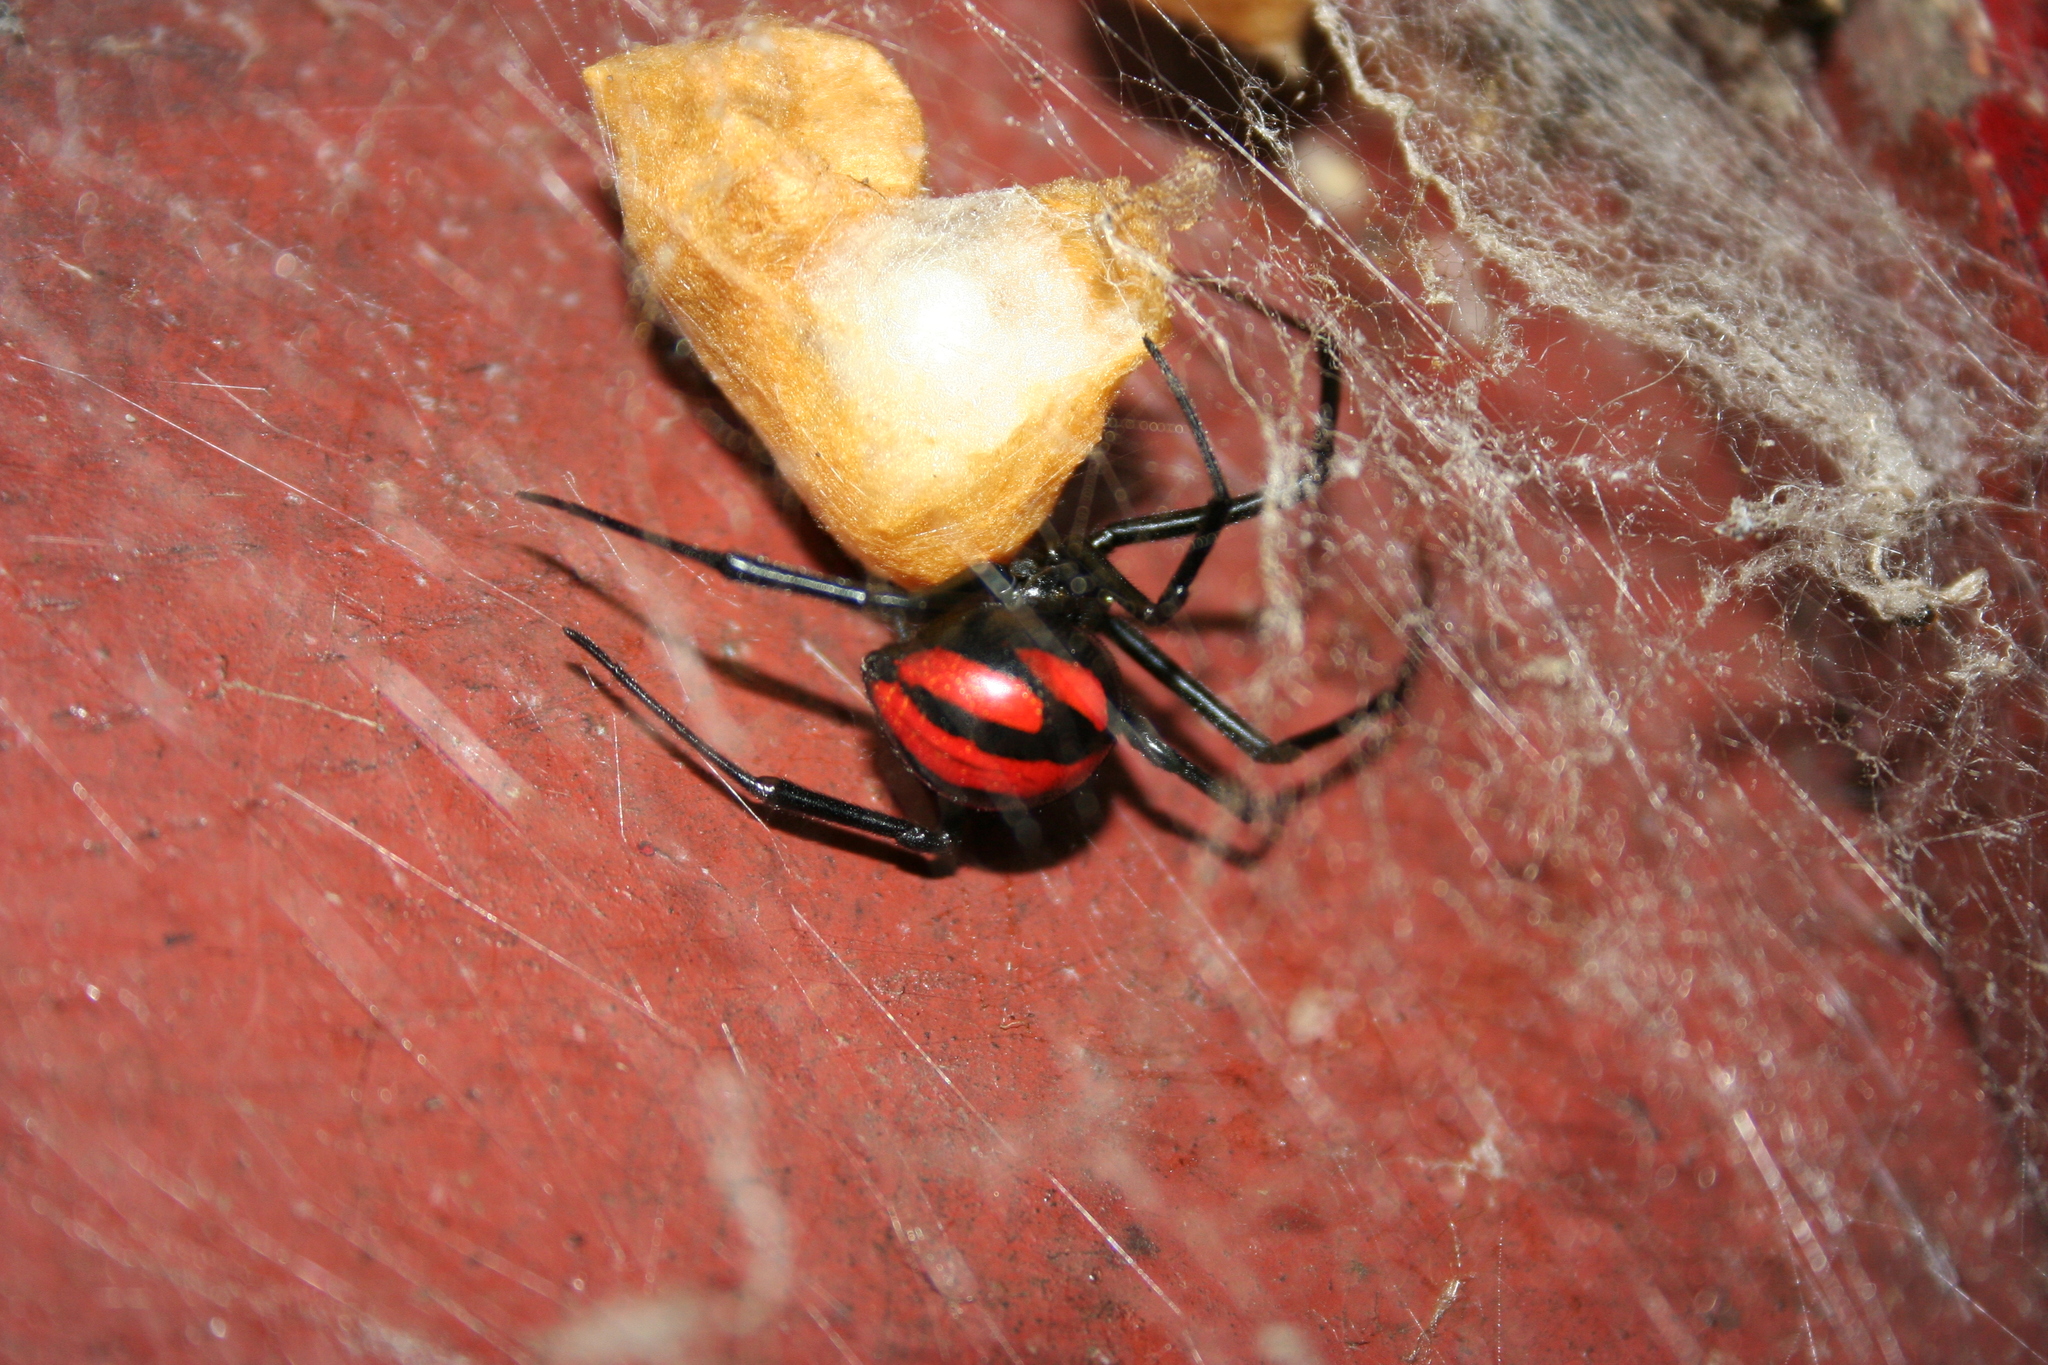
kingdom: Animalia
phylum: Arthropoda
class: Arachnida
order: Araneae
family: Theridiidae
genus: Latrodectus
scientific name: Latrodectus
